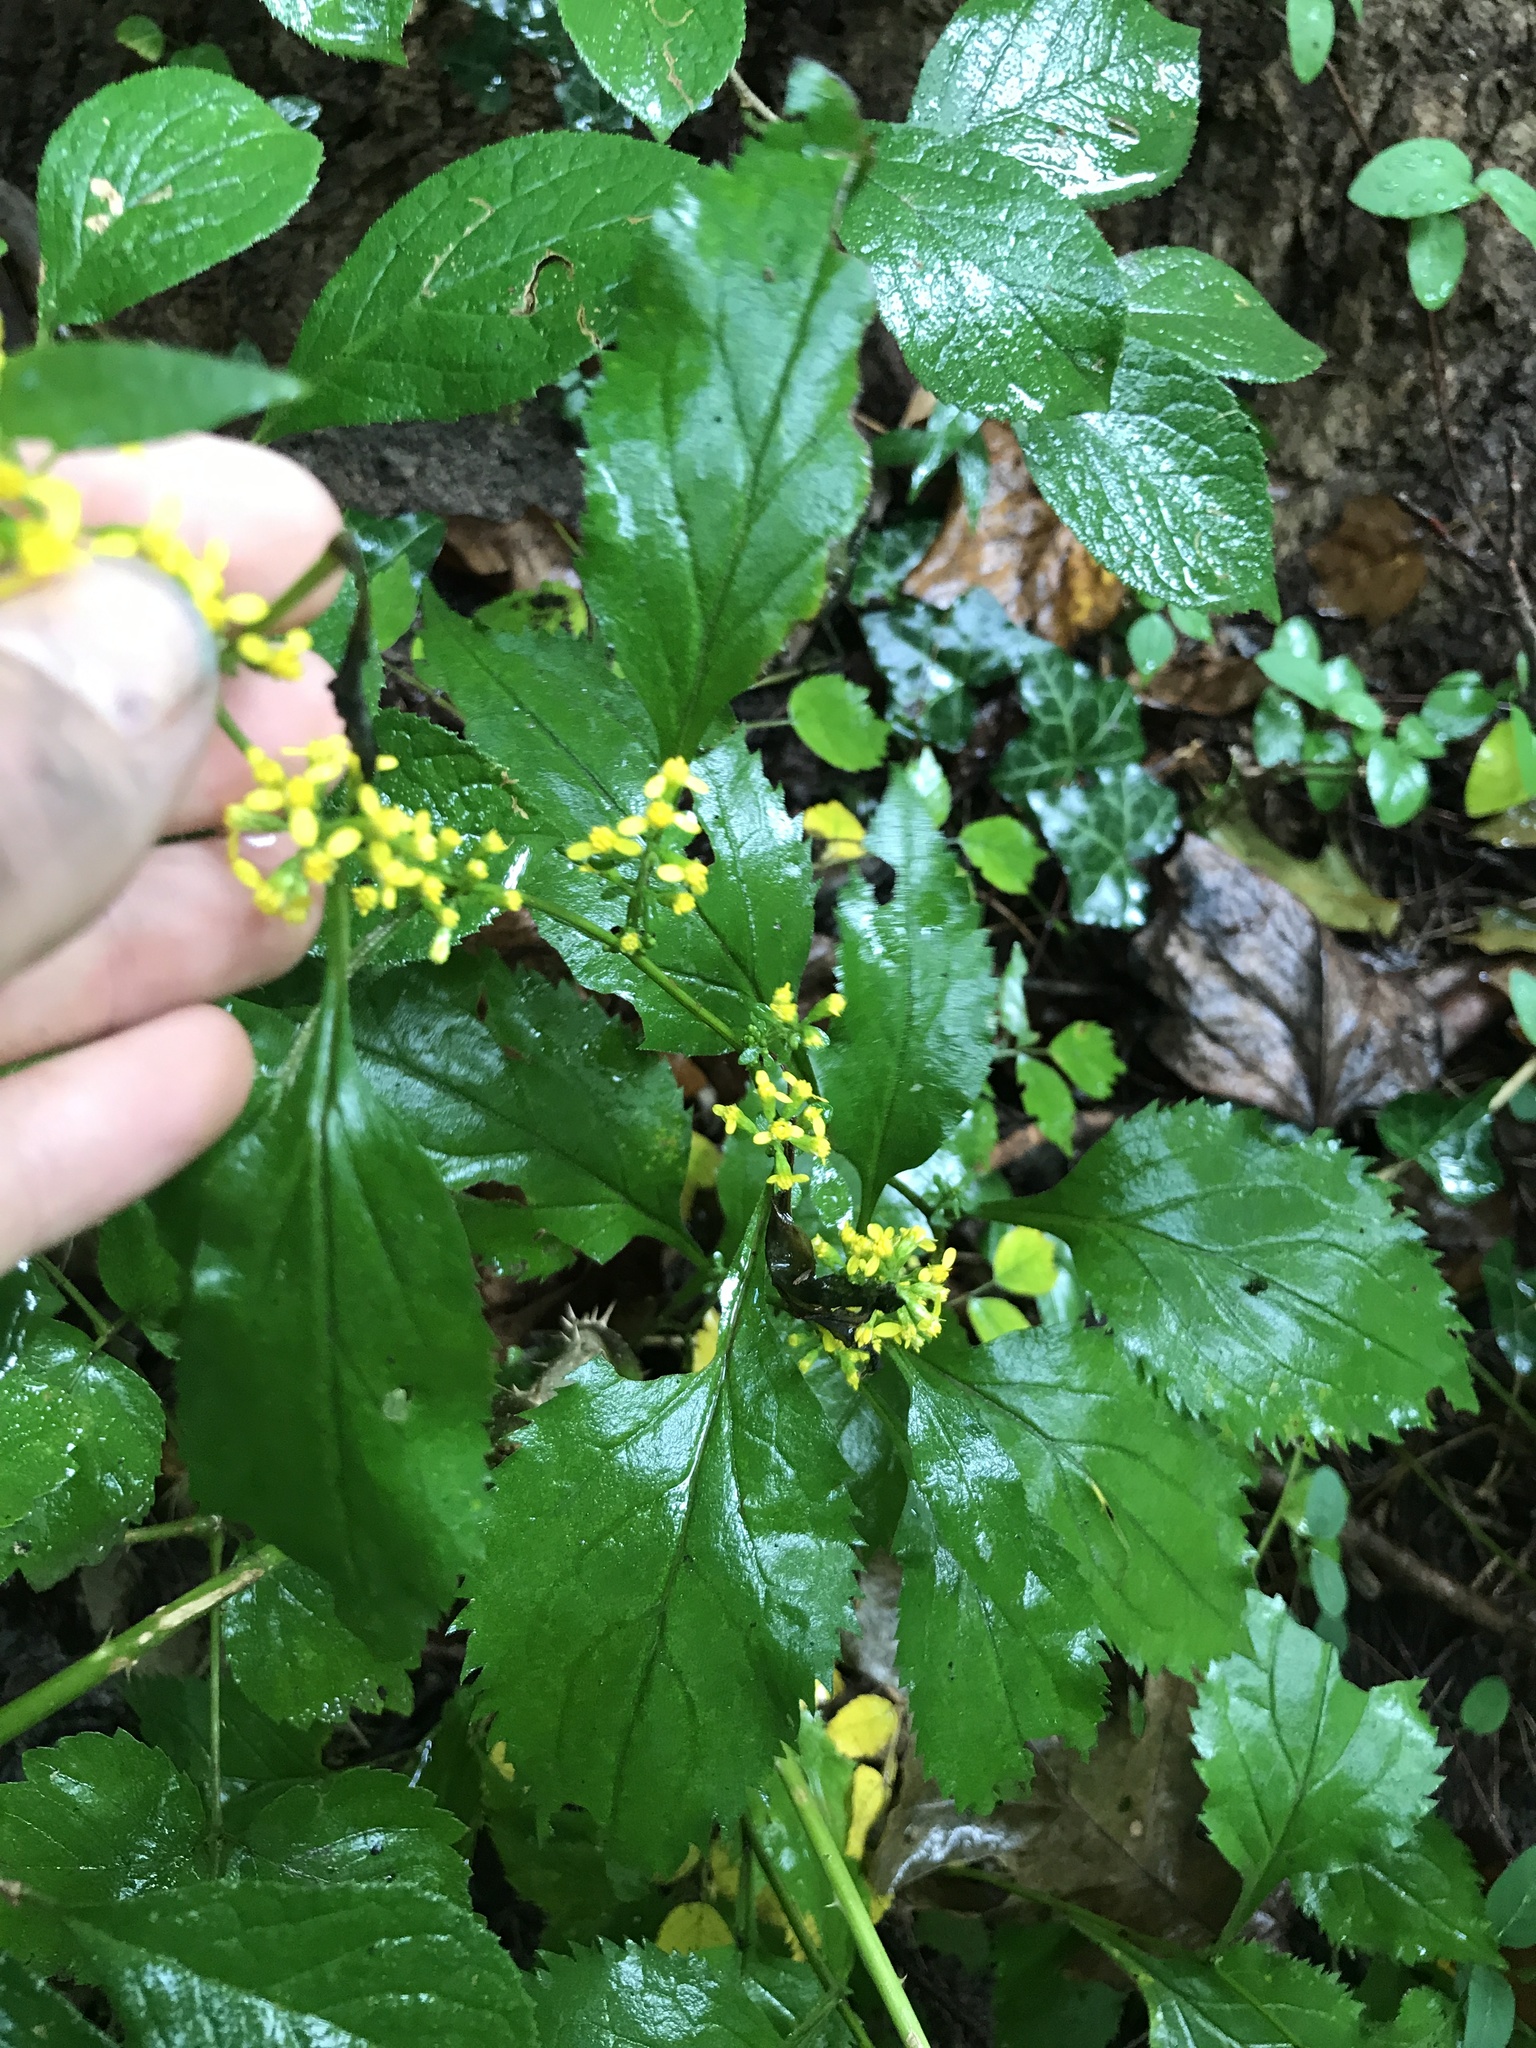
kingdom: Plantae
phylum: Tracheophyta
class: Magnoliopsida
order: Asterales
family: Asteraceae
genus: Solidago
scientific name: Solidago flexicaulis
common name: Zig-zag goldenrod
